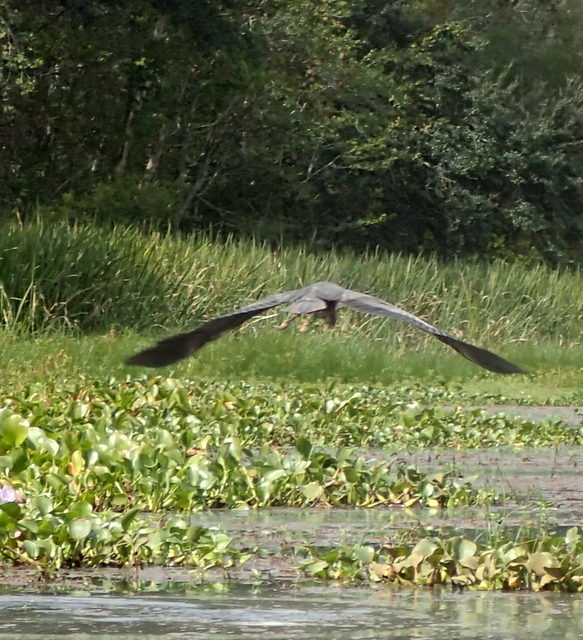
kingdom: Animalia
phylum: Chordata
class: Aves
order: Pelecaniformes
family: Ardeidae
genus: Ardea
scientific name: Ardea herodias
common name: Great blue heron
